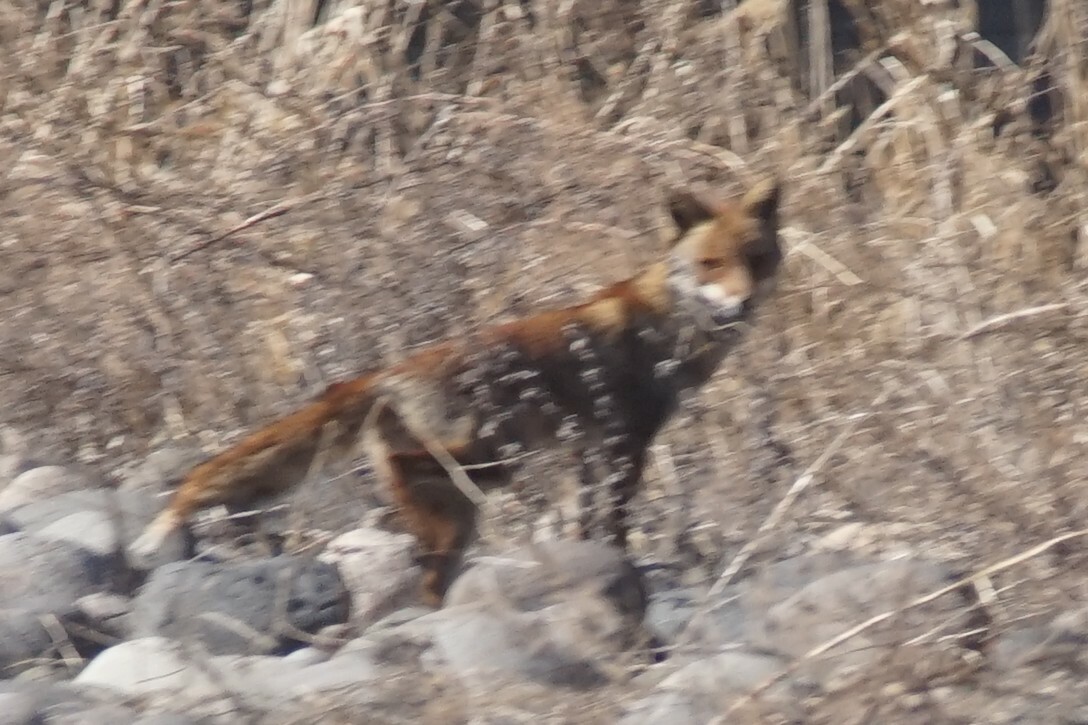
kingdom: Animalia
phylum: Chordata
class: Mammalia
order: Carnivora
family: Canidae
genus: Vulpes
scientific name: Vulpes vulpes
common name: Red fox
